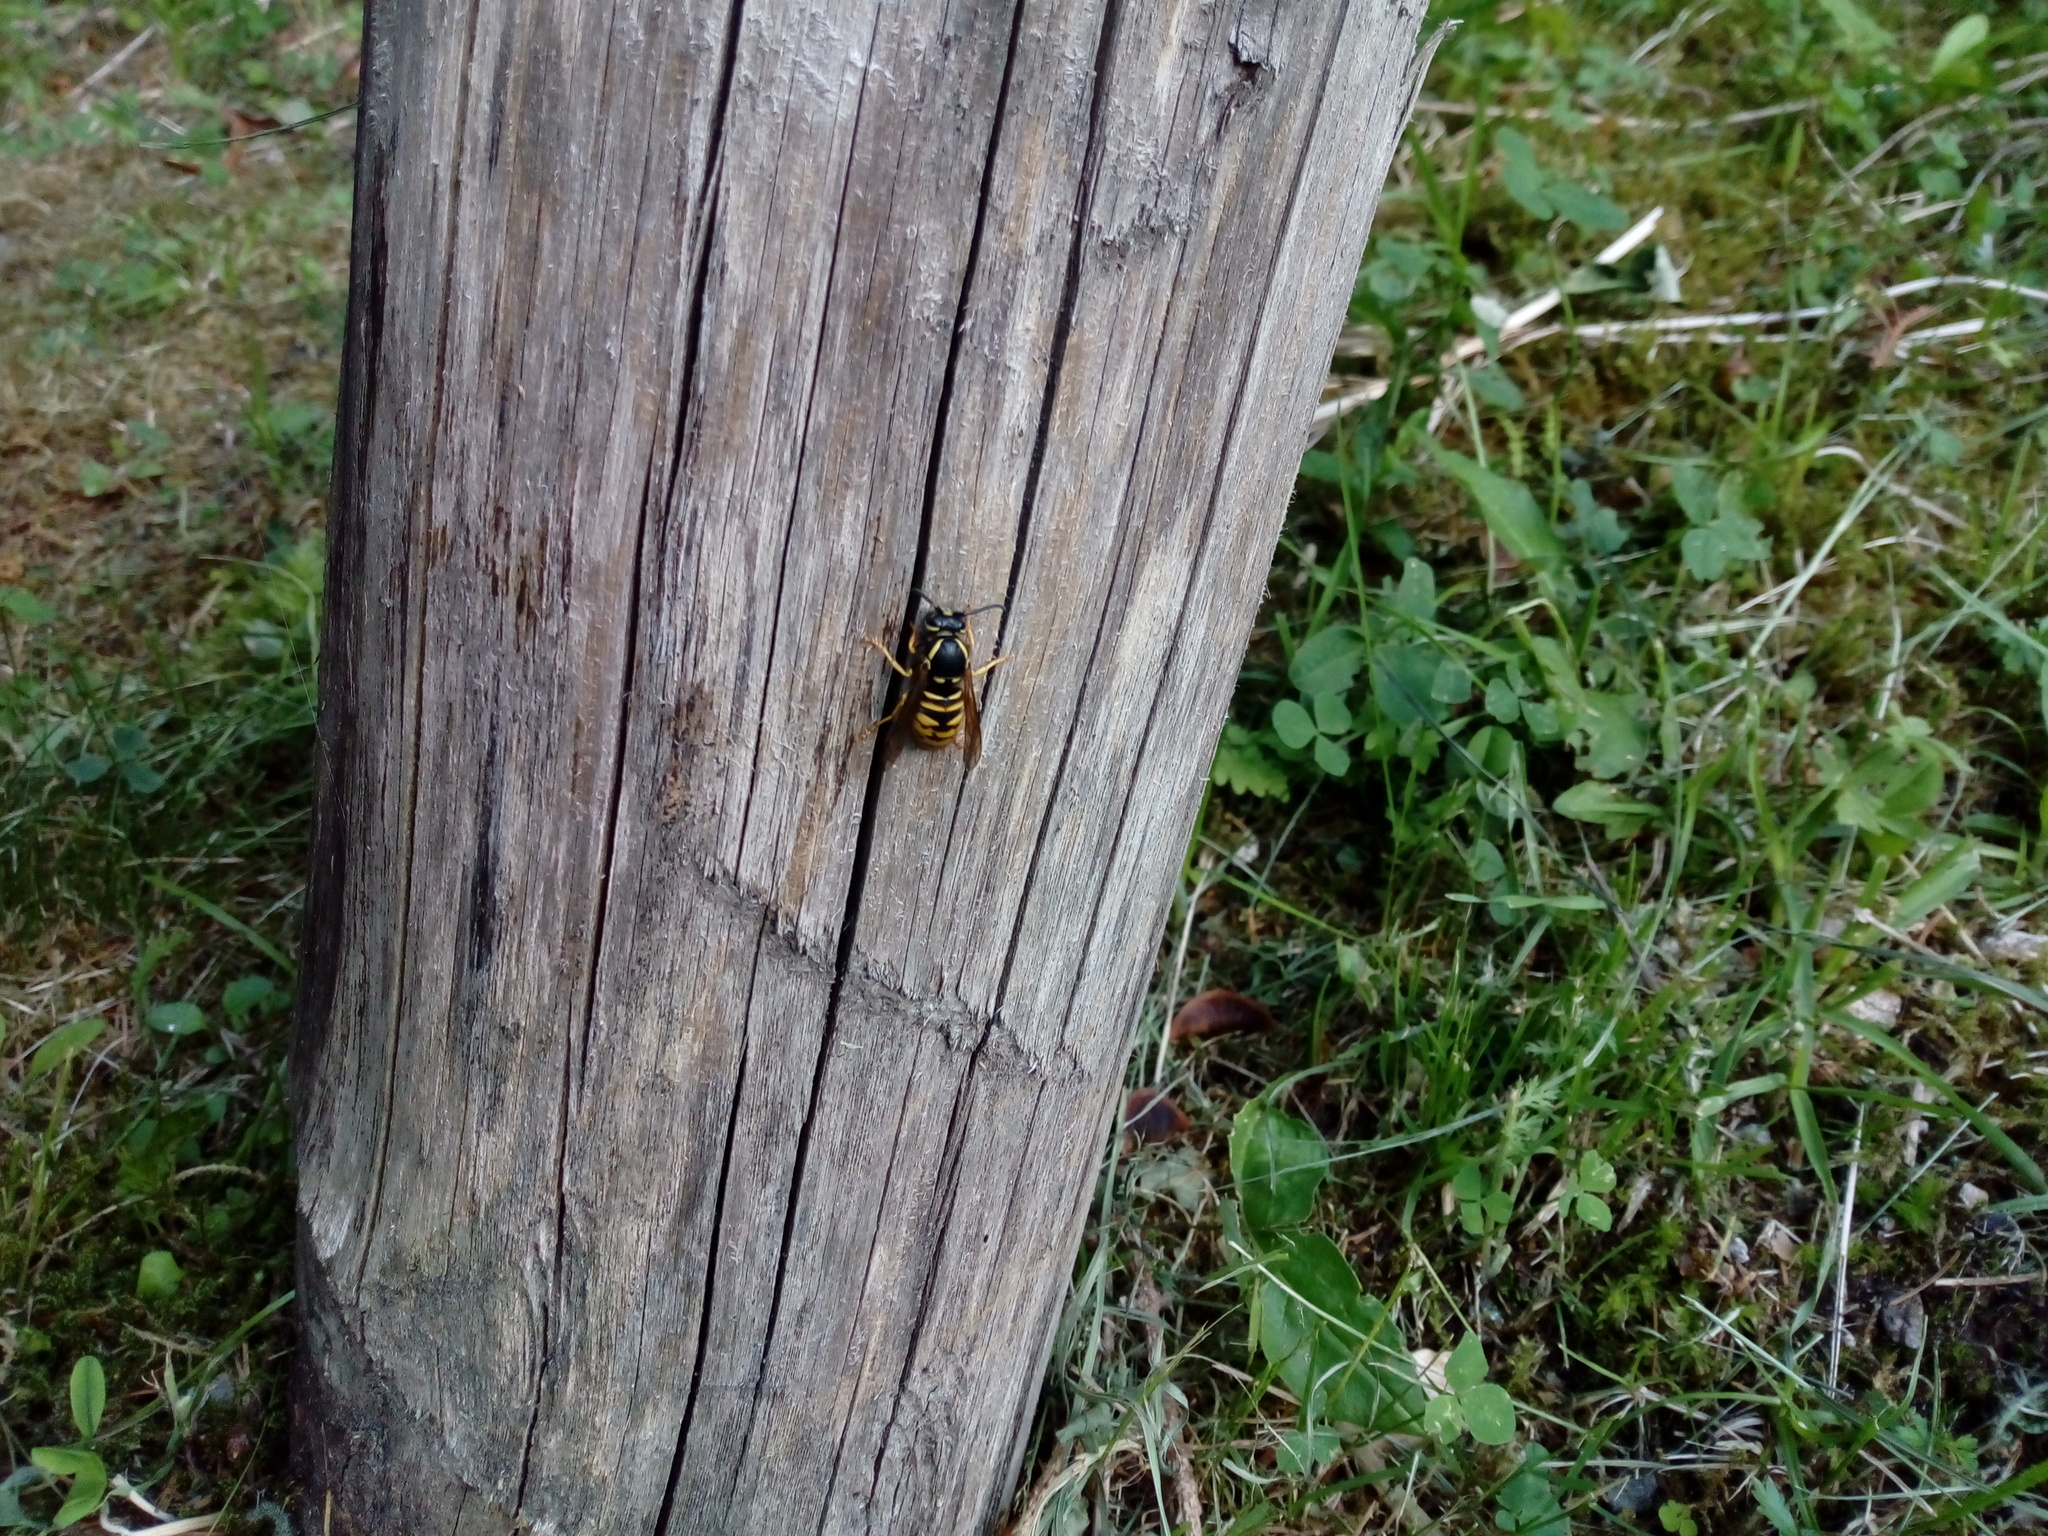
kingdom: Animalia
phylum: Arthropoda
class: Insecta
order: Hymenoptera
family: Vespidae
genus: Vespula
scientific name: Vespula rufa
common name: Red wasp
